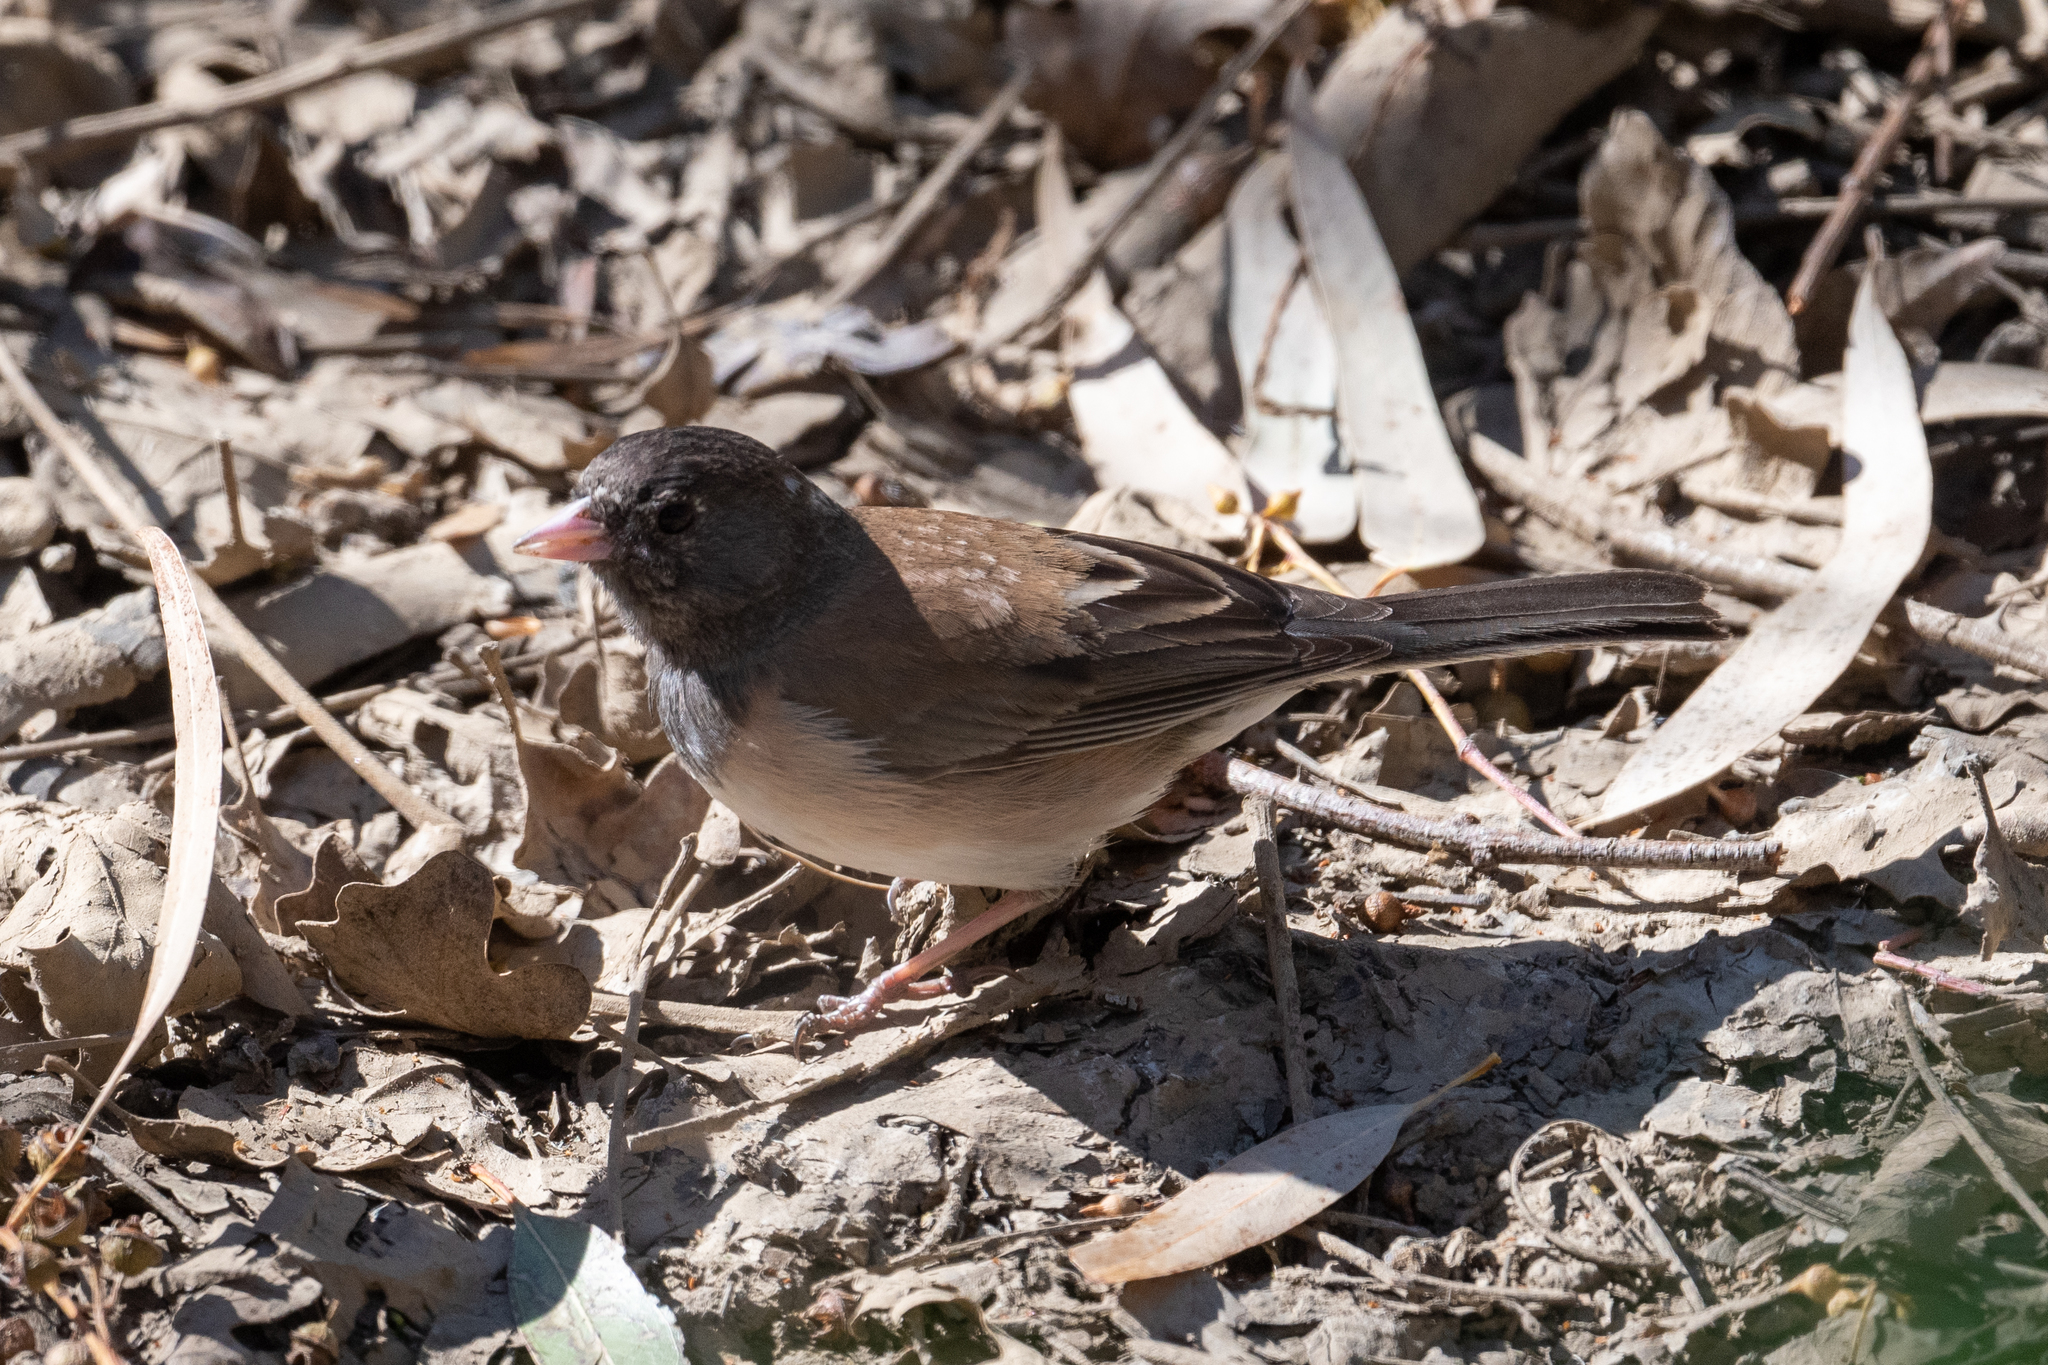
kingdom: Animalia
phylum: Chordata
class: Aves
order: Passeriformes
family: Passerellidae
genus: Junco
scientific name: Junco hyemalis
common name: Dark-eyed junco
